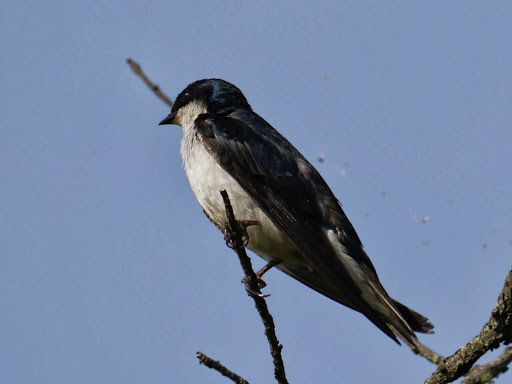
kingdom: Animalia
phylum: Chordata
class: Aves
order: Passeriformes
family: Hirundinidae
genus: Tachycineta
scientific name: Tachycineta bicolor
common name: Tree swallow
